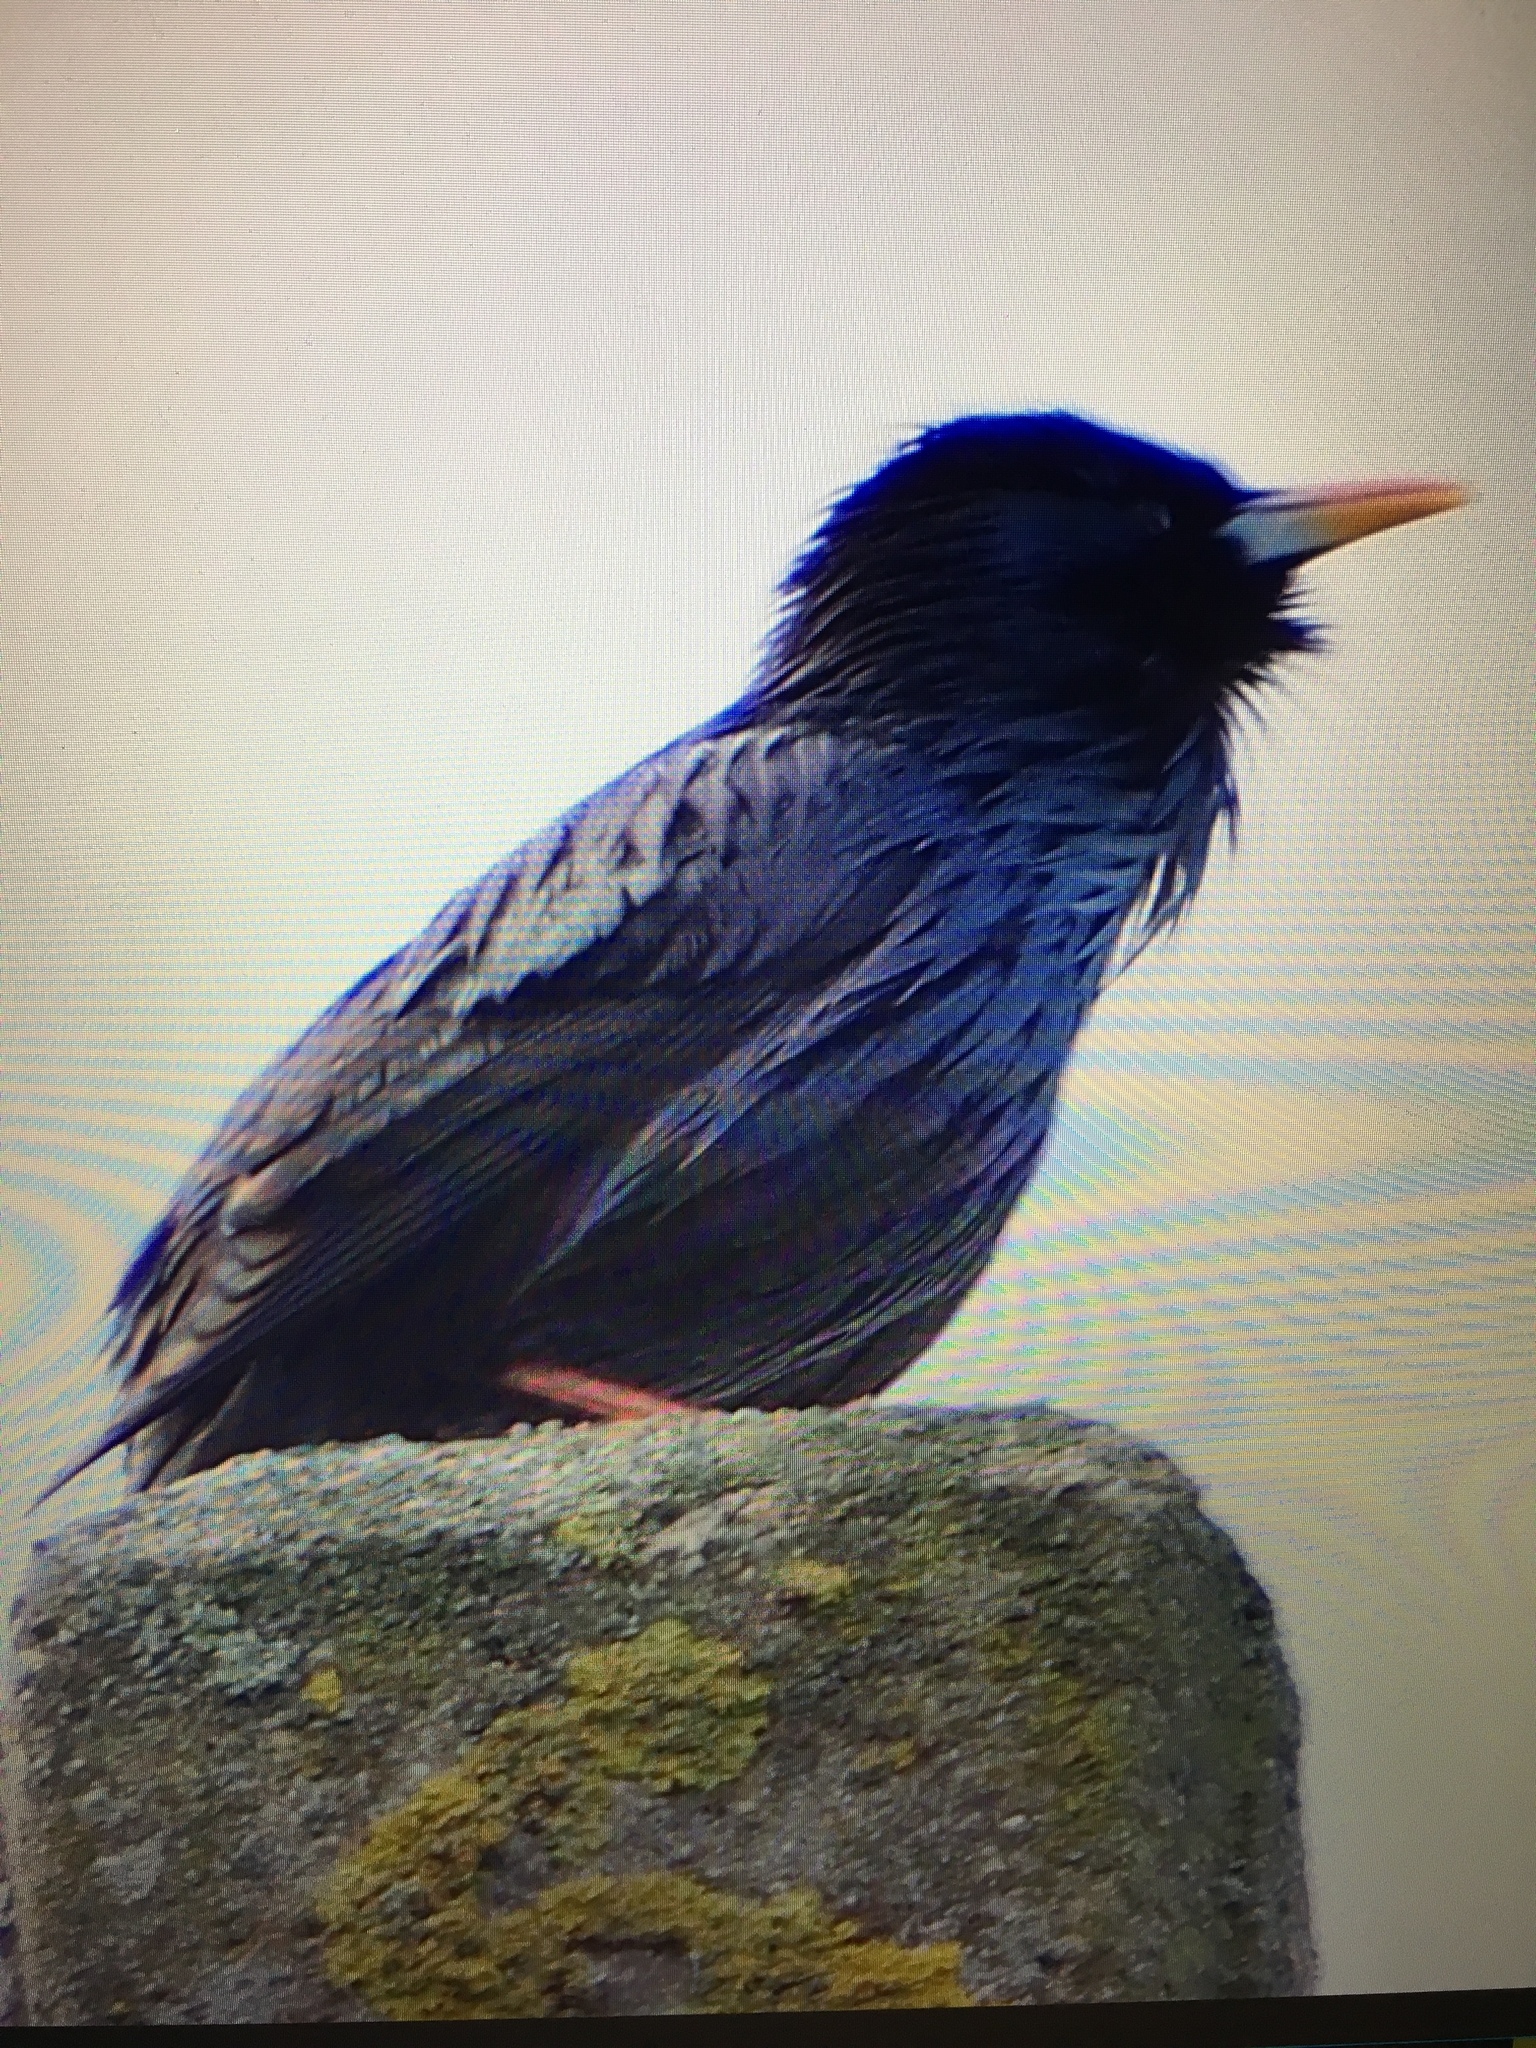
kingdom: Animalia
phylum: Chordata
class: Aves
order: Passeriformes
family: Sturnidae
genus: Sturnus
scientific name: Sturnus unicolor
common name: Spotless starling
